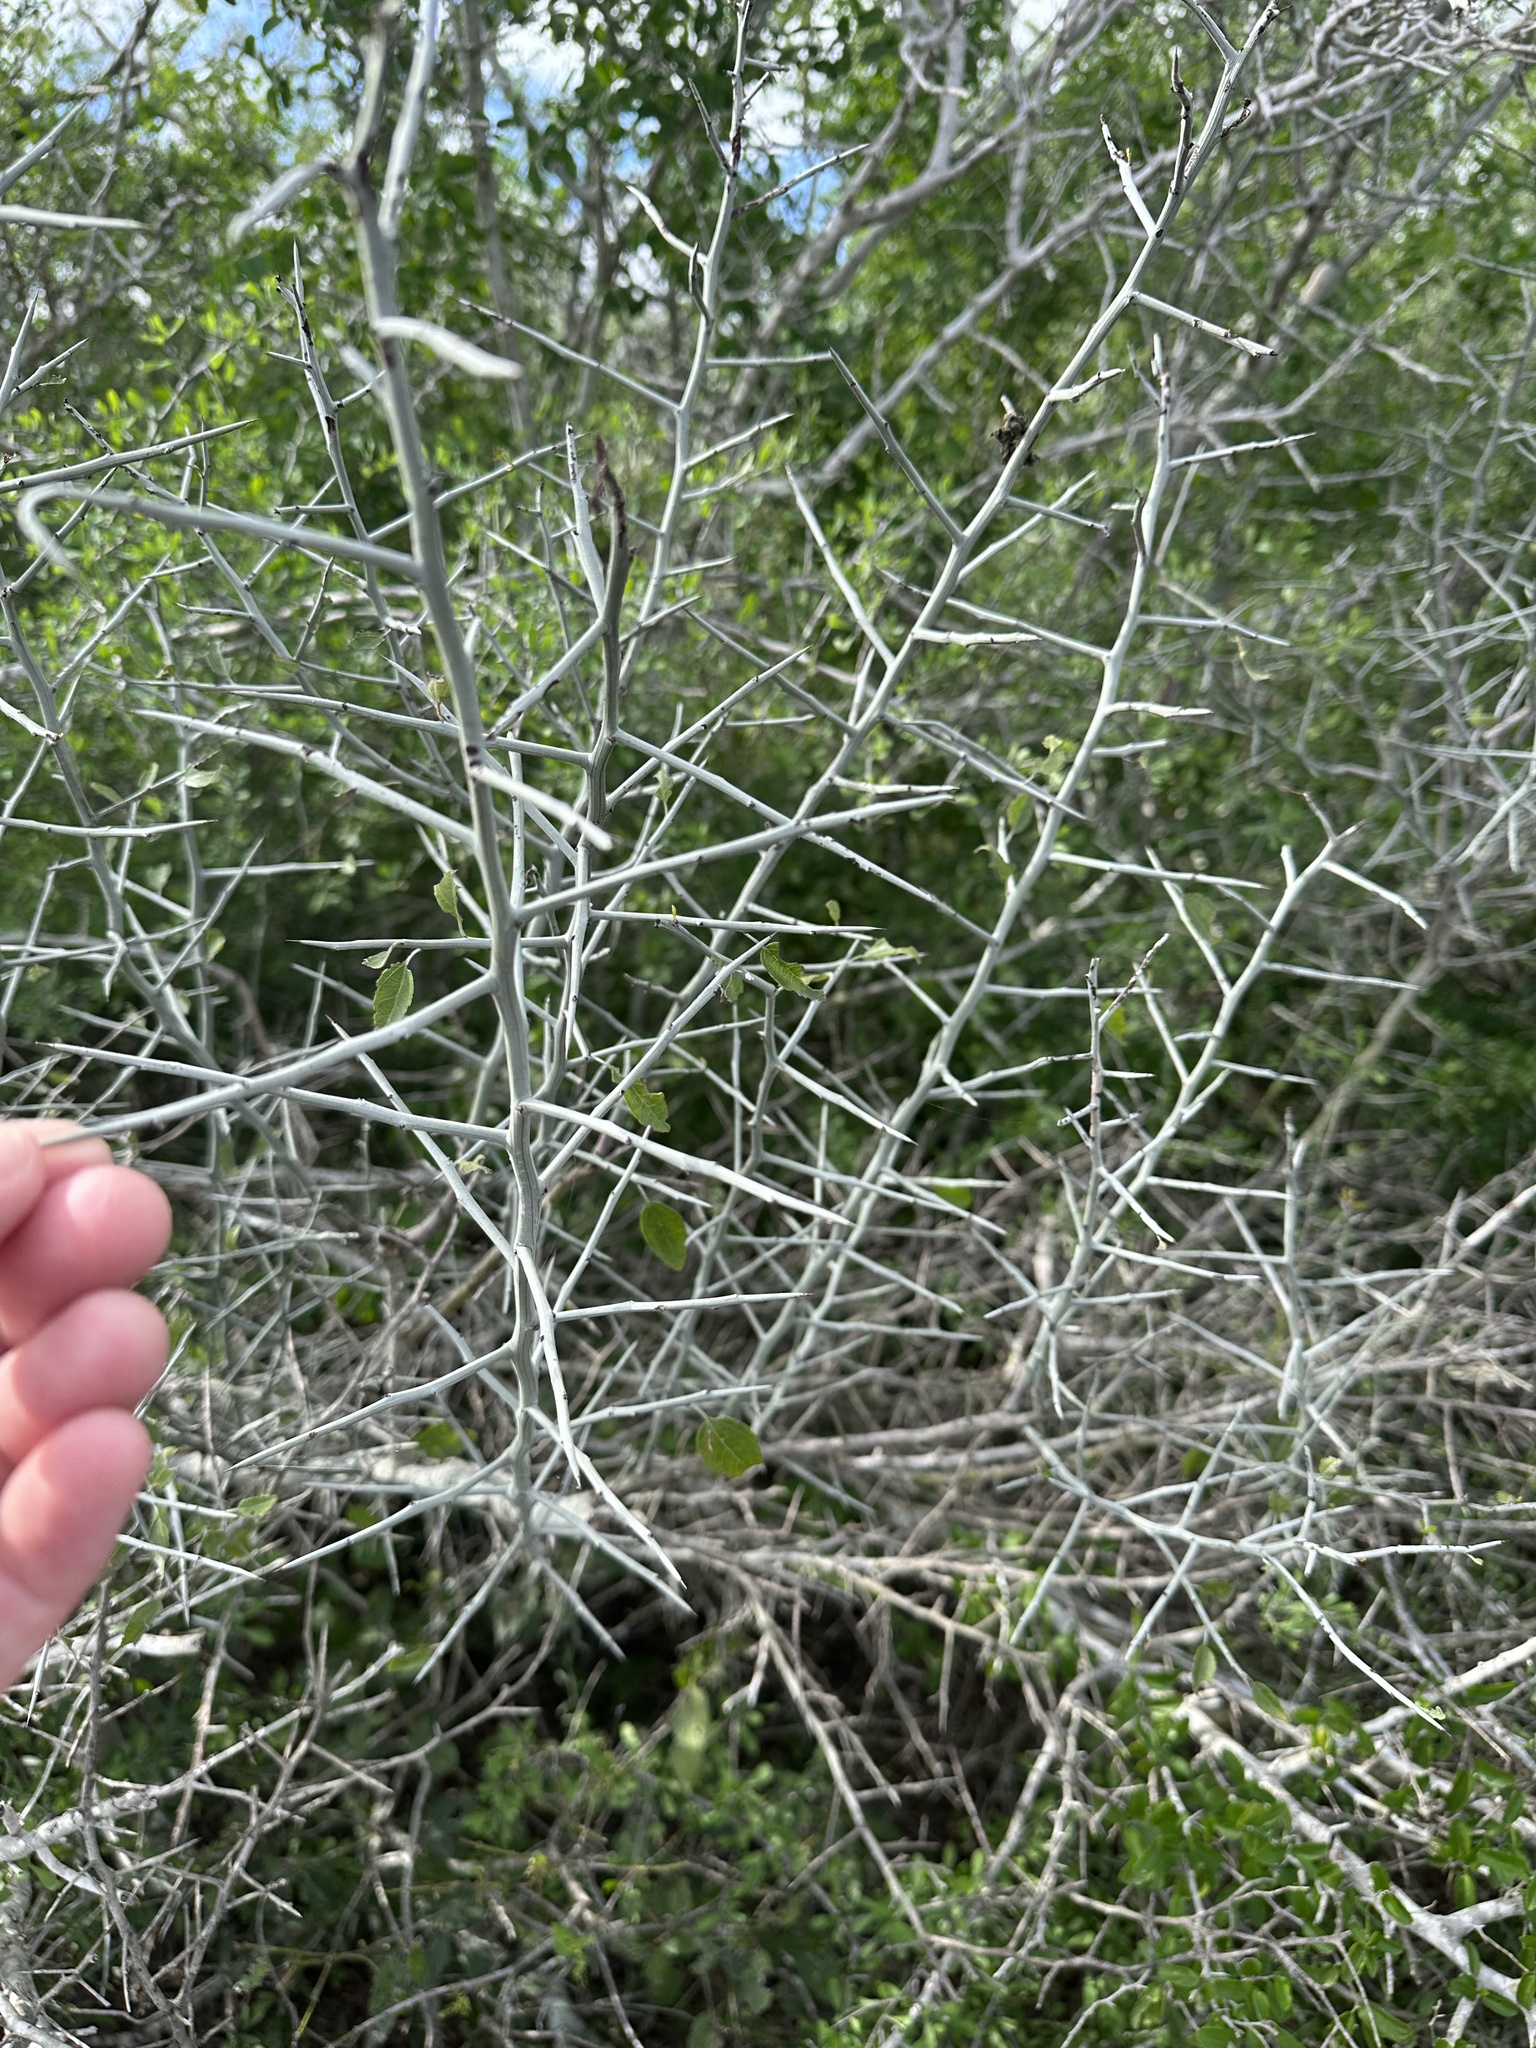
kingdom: Plantae
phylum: Tracheophyta
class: Magnoliopsida
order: Rosales
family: Rhamnaceae
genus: Sarcomphalus
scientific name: Sarcomphalus obtusifolius
